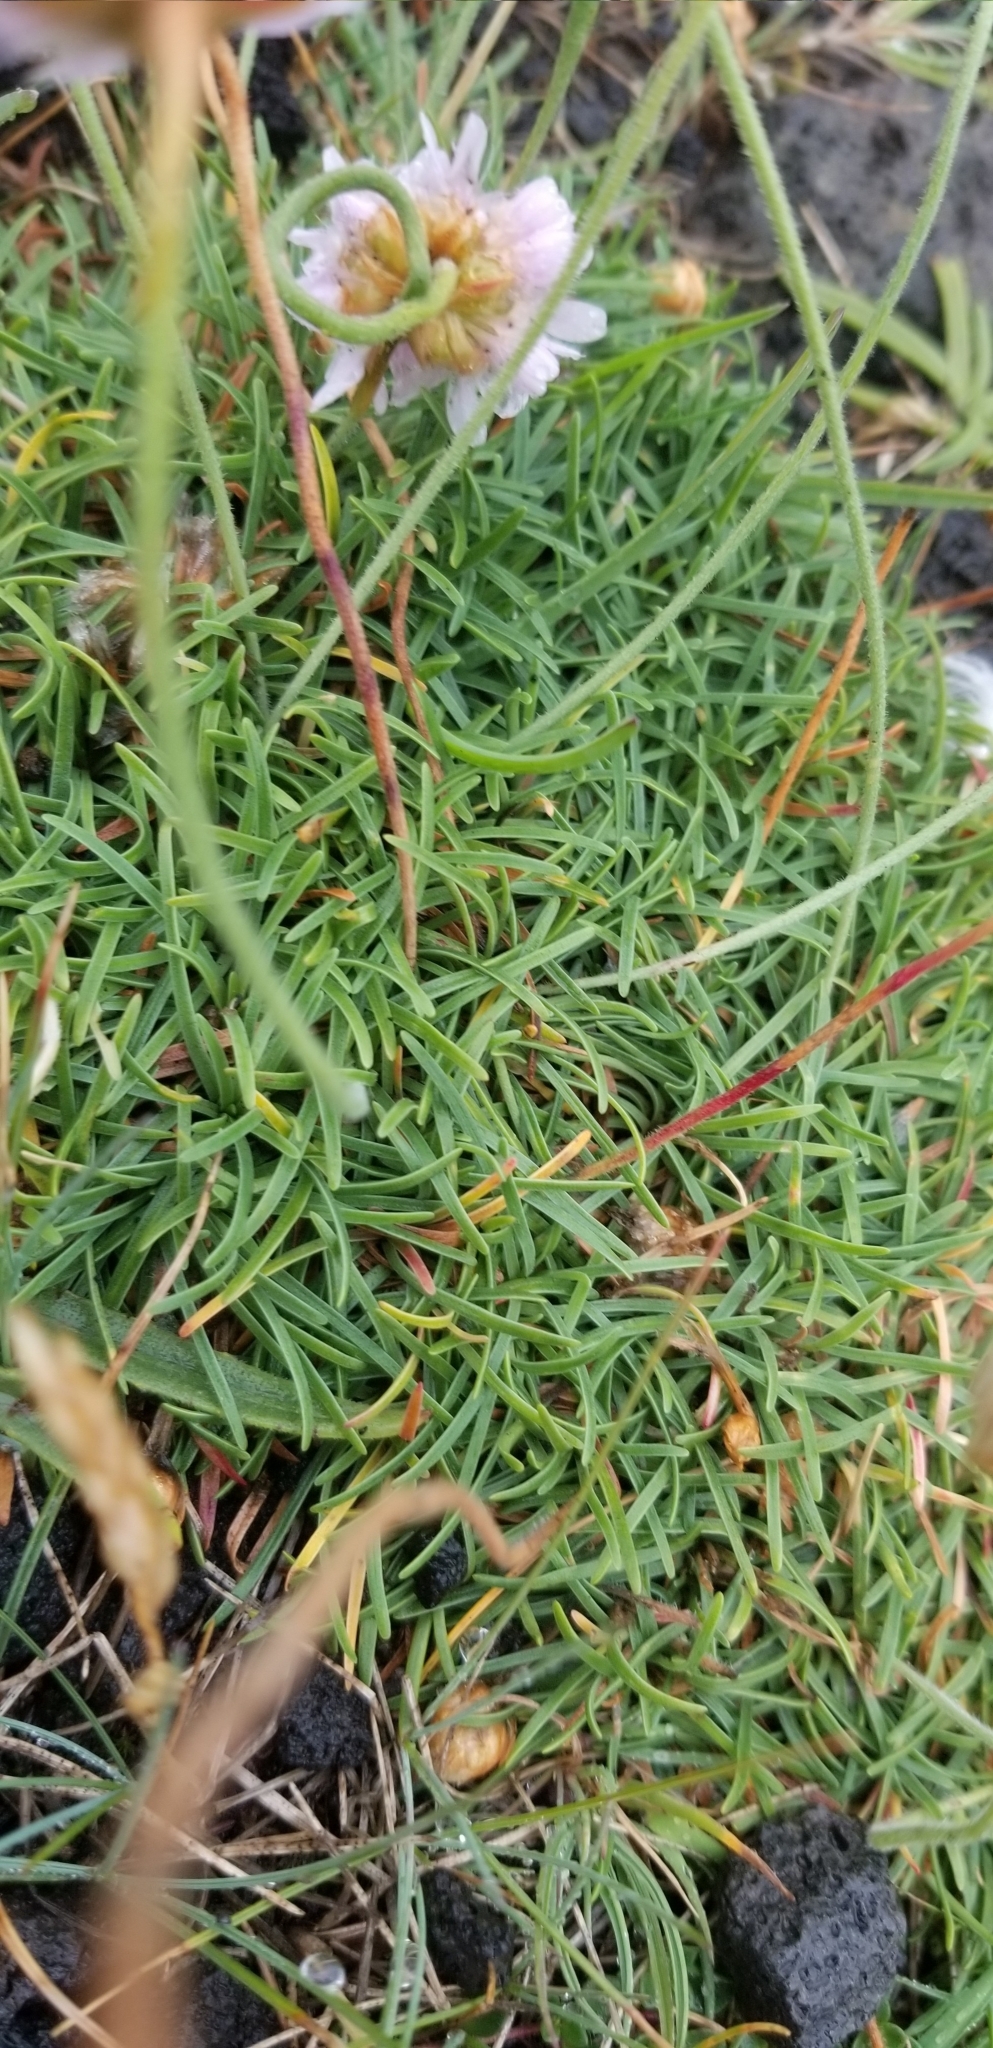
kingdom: Plantae
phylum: Tracheophyta
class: Magnoliopsida
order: Caryophyllales
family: Plumbaginaceae
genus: Armeria
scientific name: Armeria maritima
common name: Thrift
